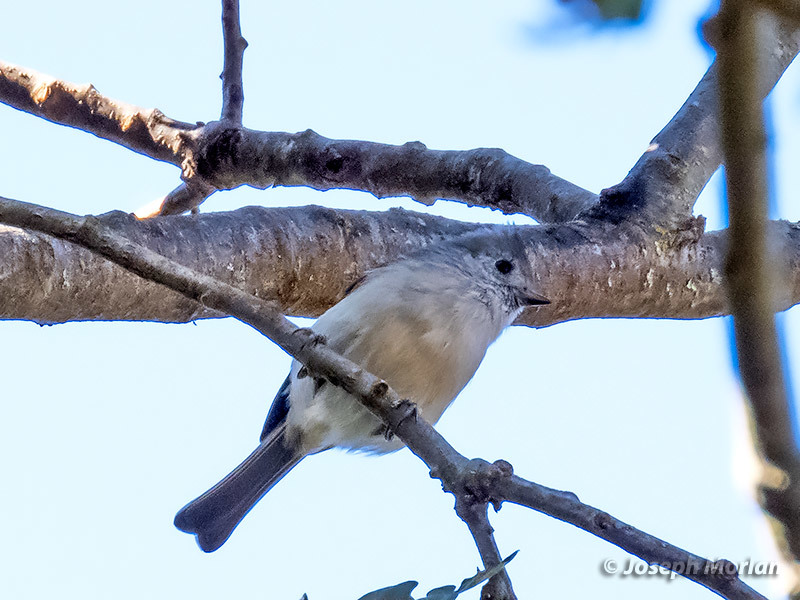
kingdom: Animalia
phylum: Chordata
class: Aves
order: Passeriformes
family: Paridae
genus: Baeolophus
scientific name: Baeolophus inornatus
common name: Oak titmouse
